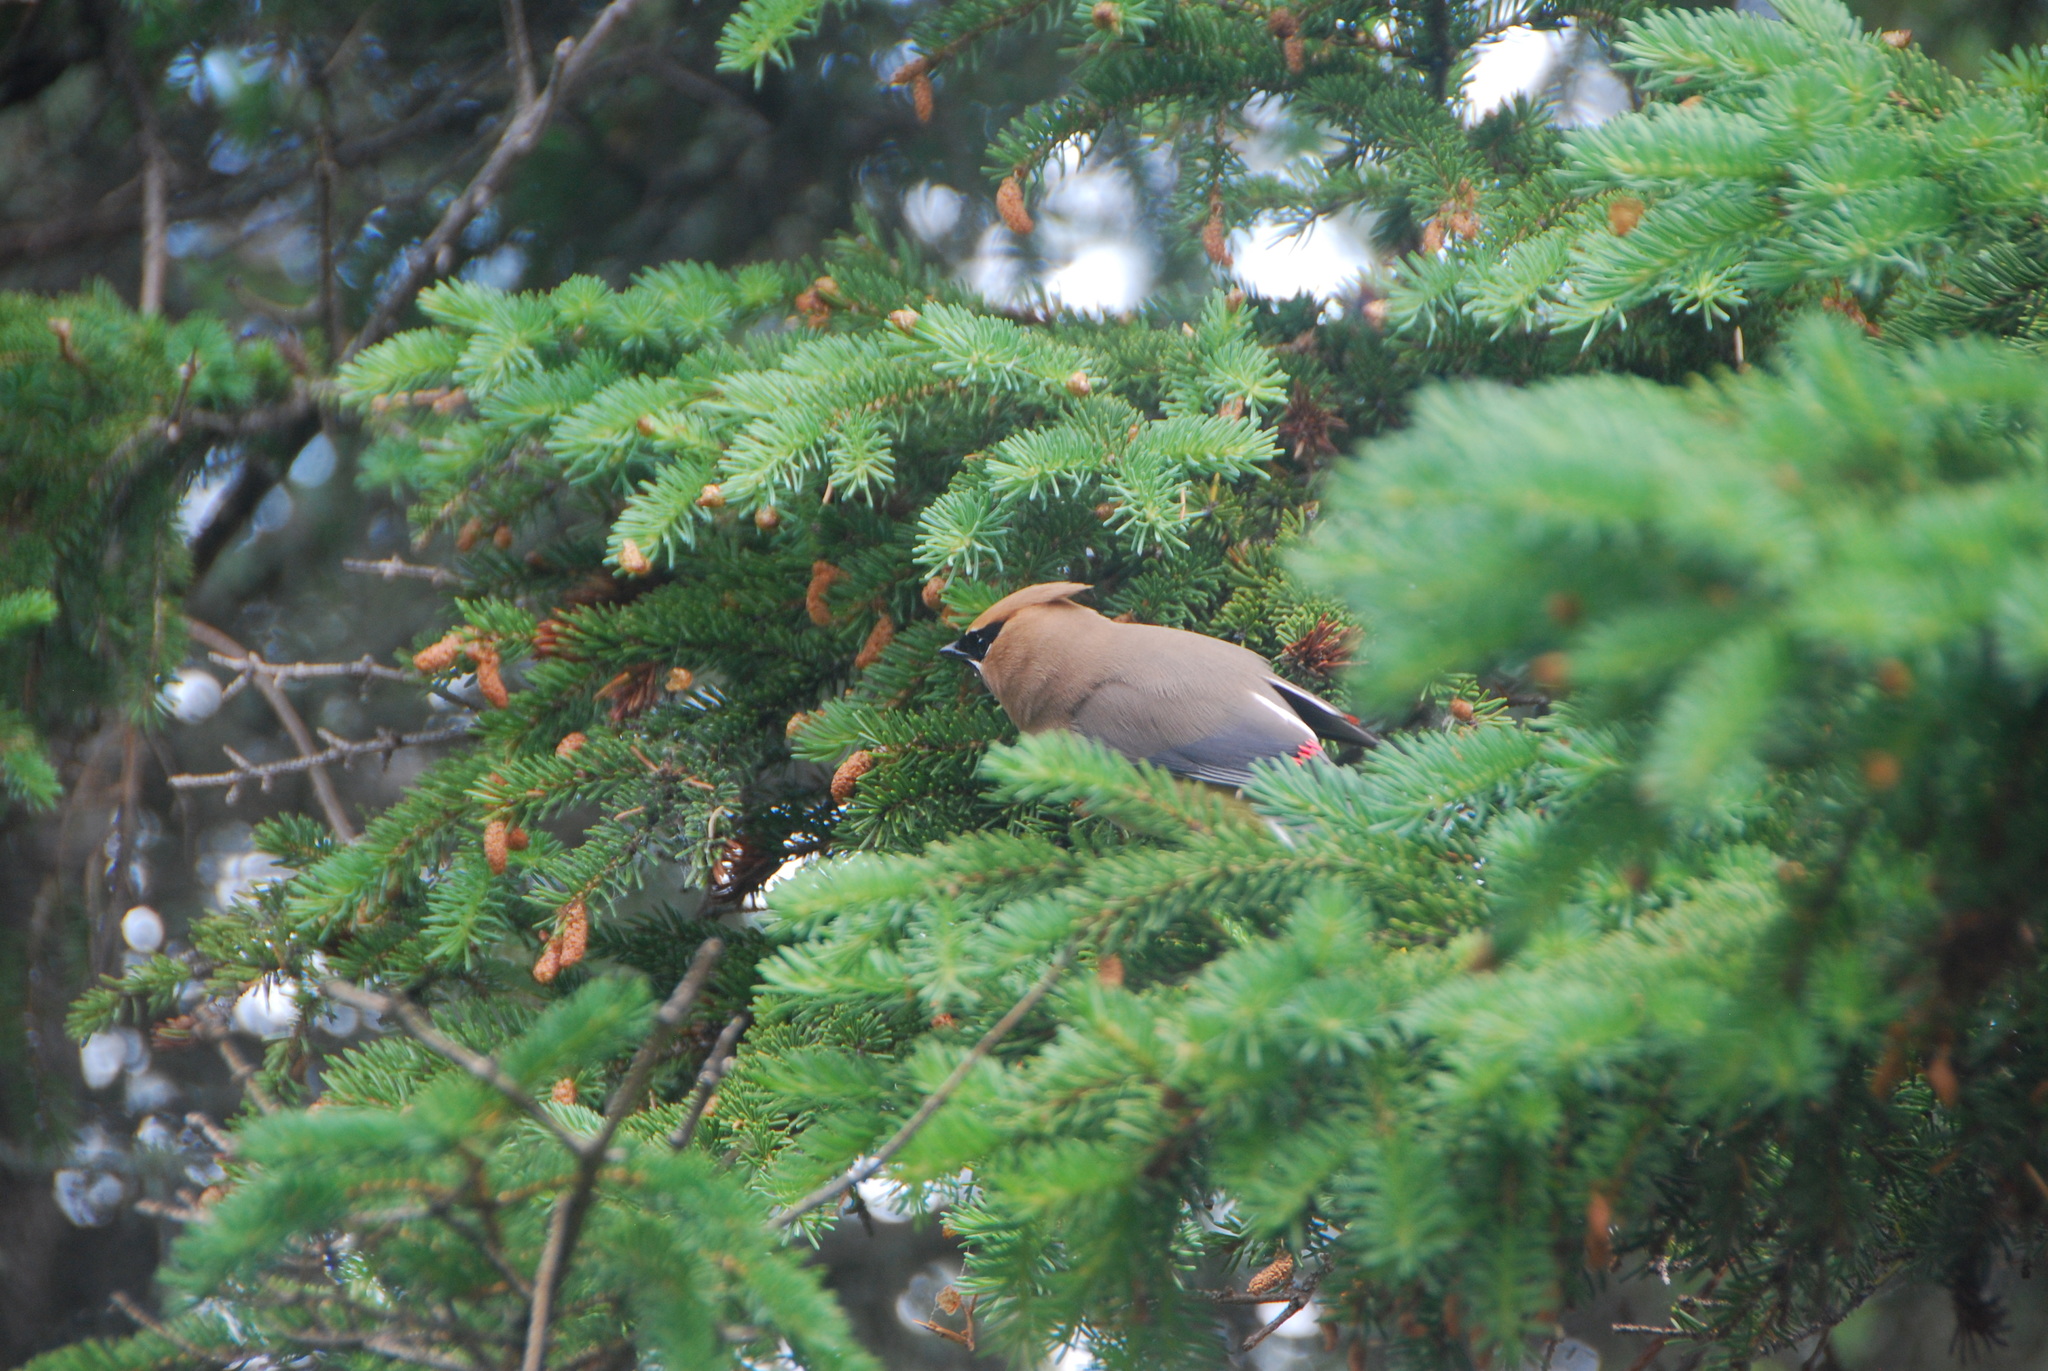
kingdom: Animalia
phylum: Chordata
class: Aves
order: Passeriformes
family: Bombycillidae
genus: Bombycilla
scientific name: Bombycilla cedrorum
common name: Cedar waxwing
